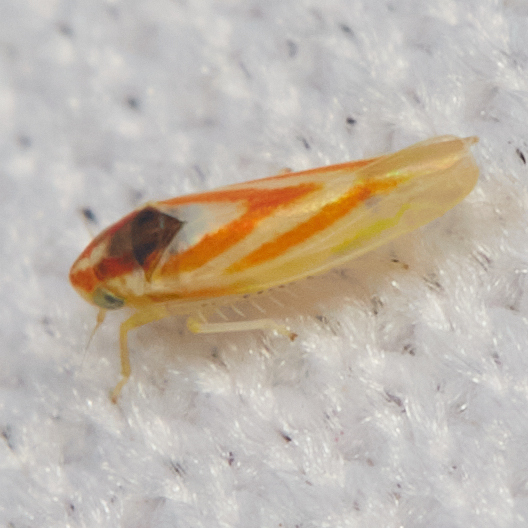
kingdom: Animalia
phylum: Arthropoda
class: Insecta
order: Hemiptera
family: Cicadellidae
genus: Erythridula
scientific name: Erythridula noeva
